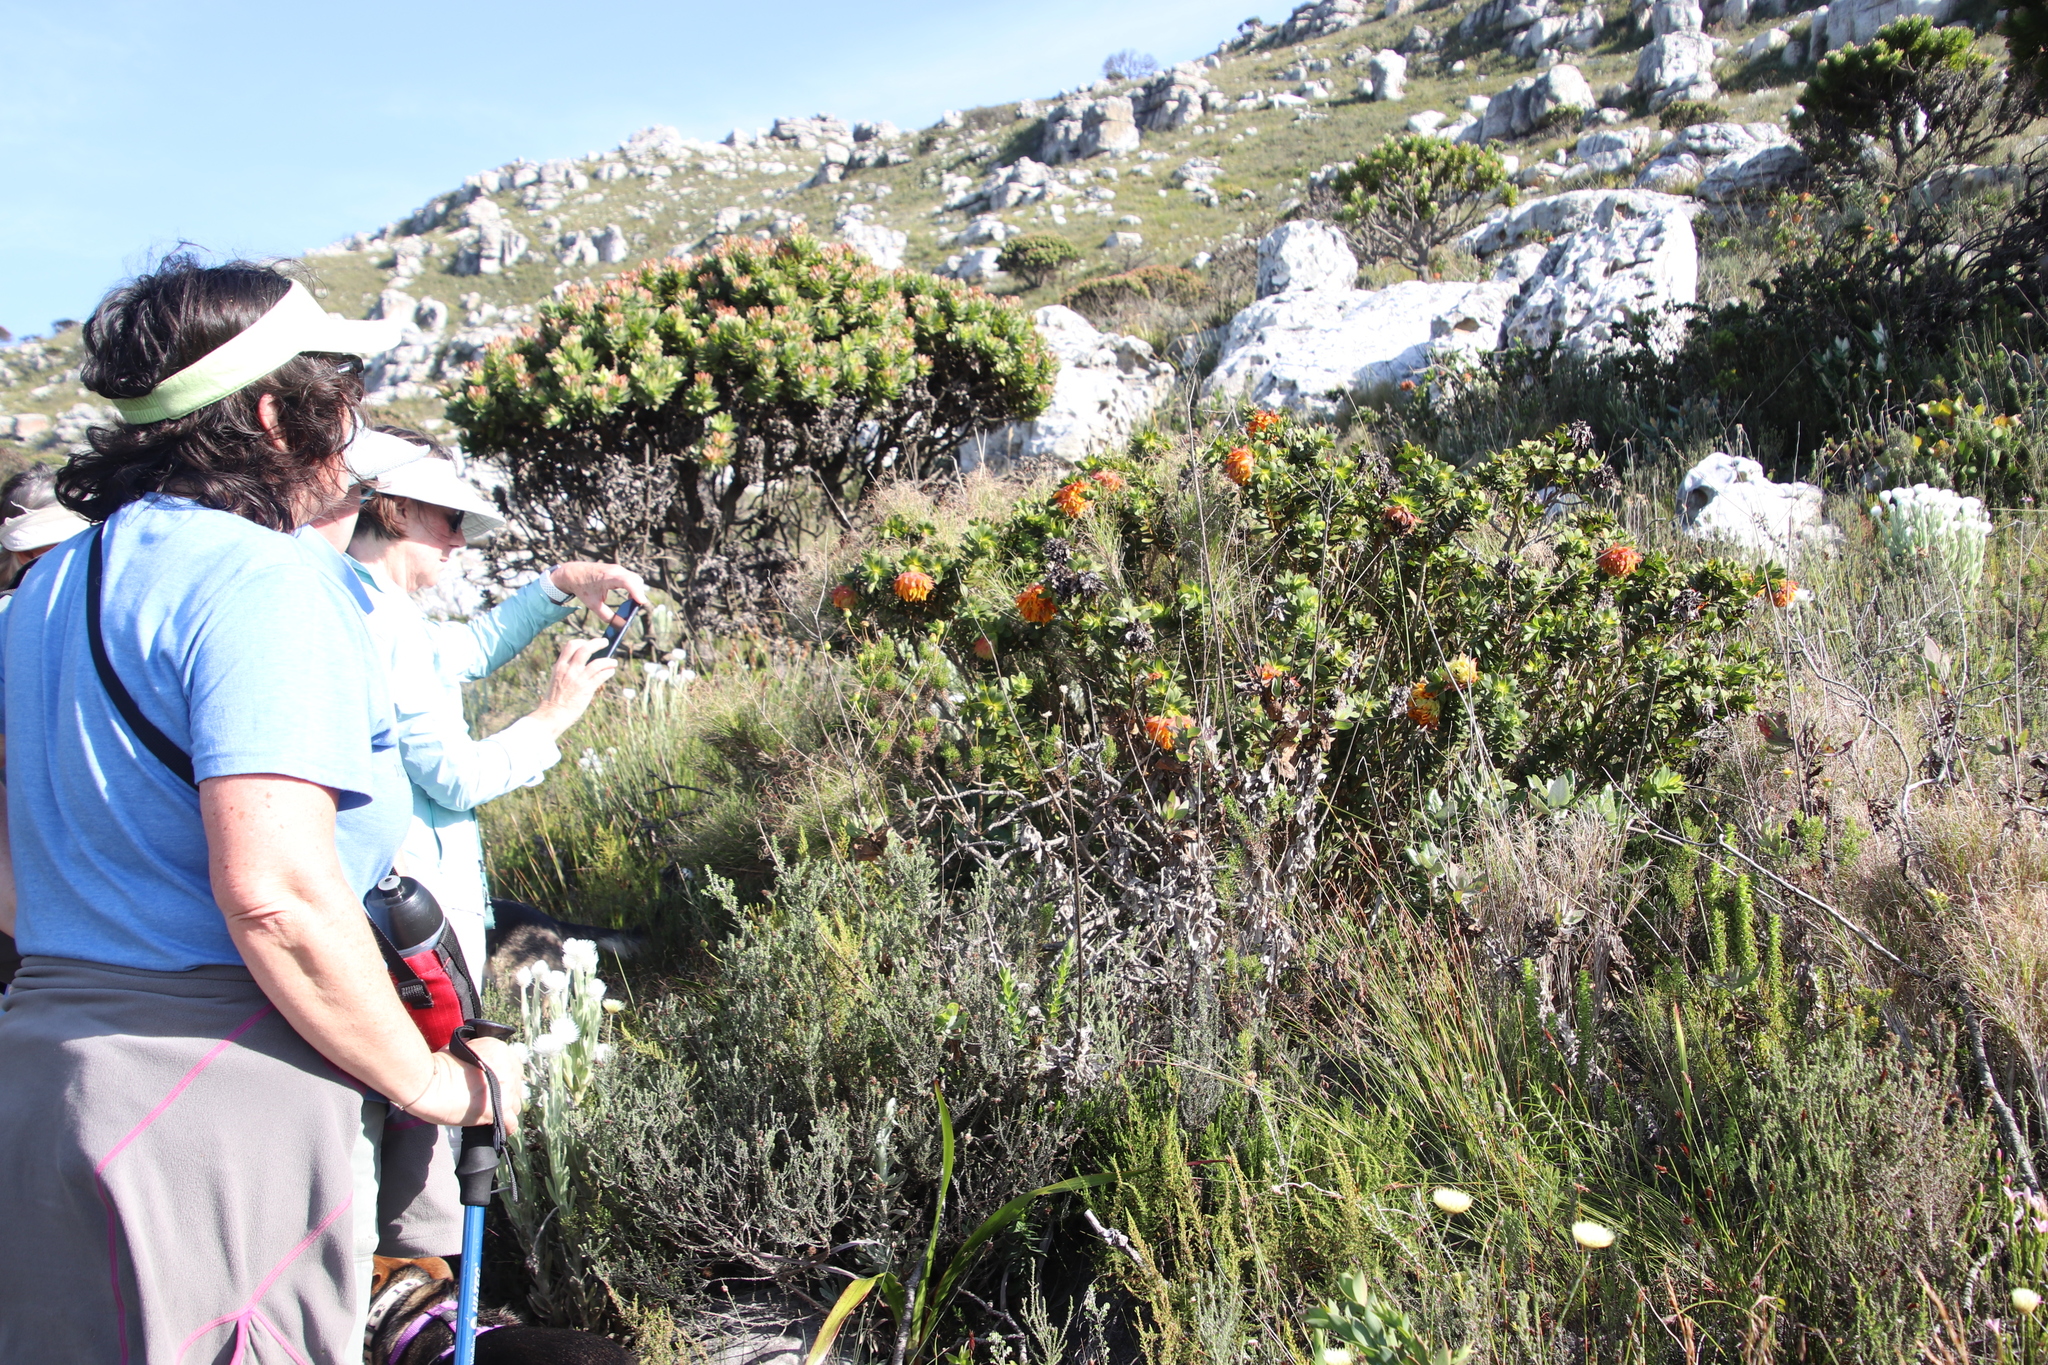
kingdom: Plantae
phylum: Tracheophyta
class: Magnoliopsida
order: Fabales
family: Fabaceae
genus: Liparia
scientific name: Liparia splendens
